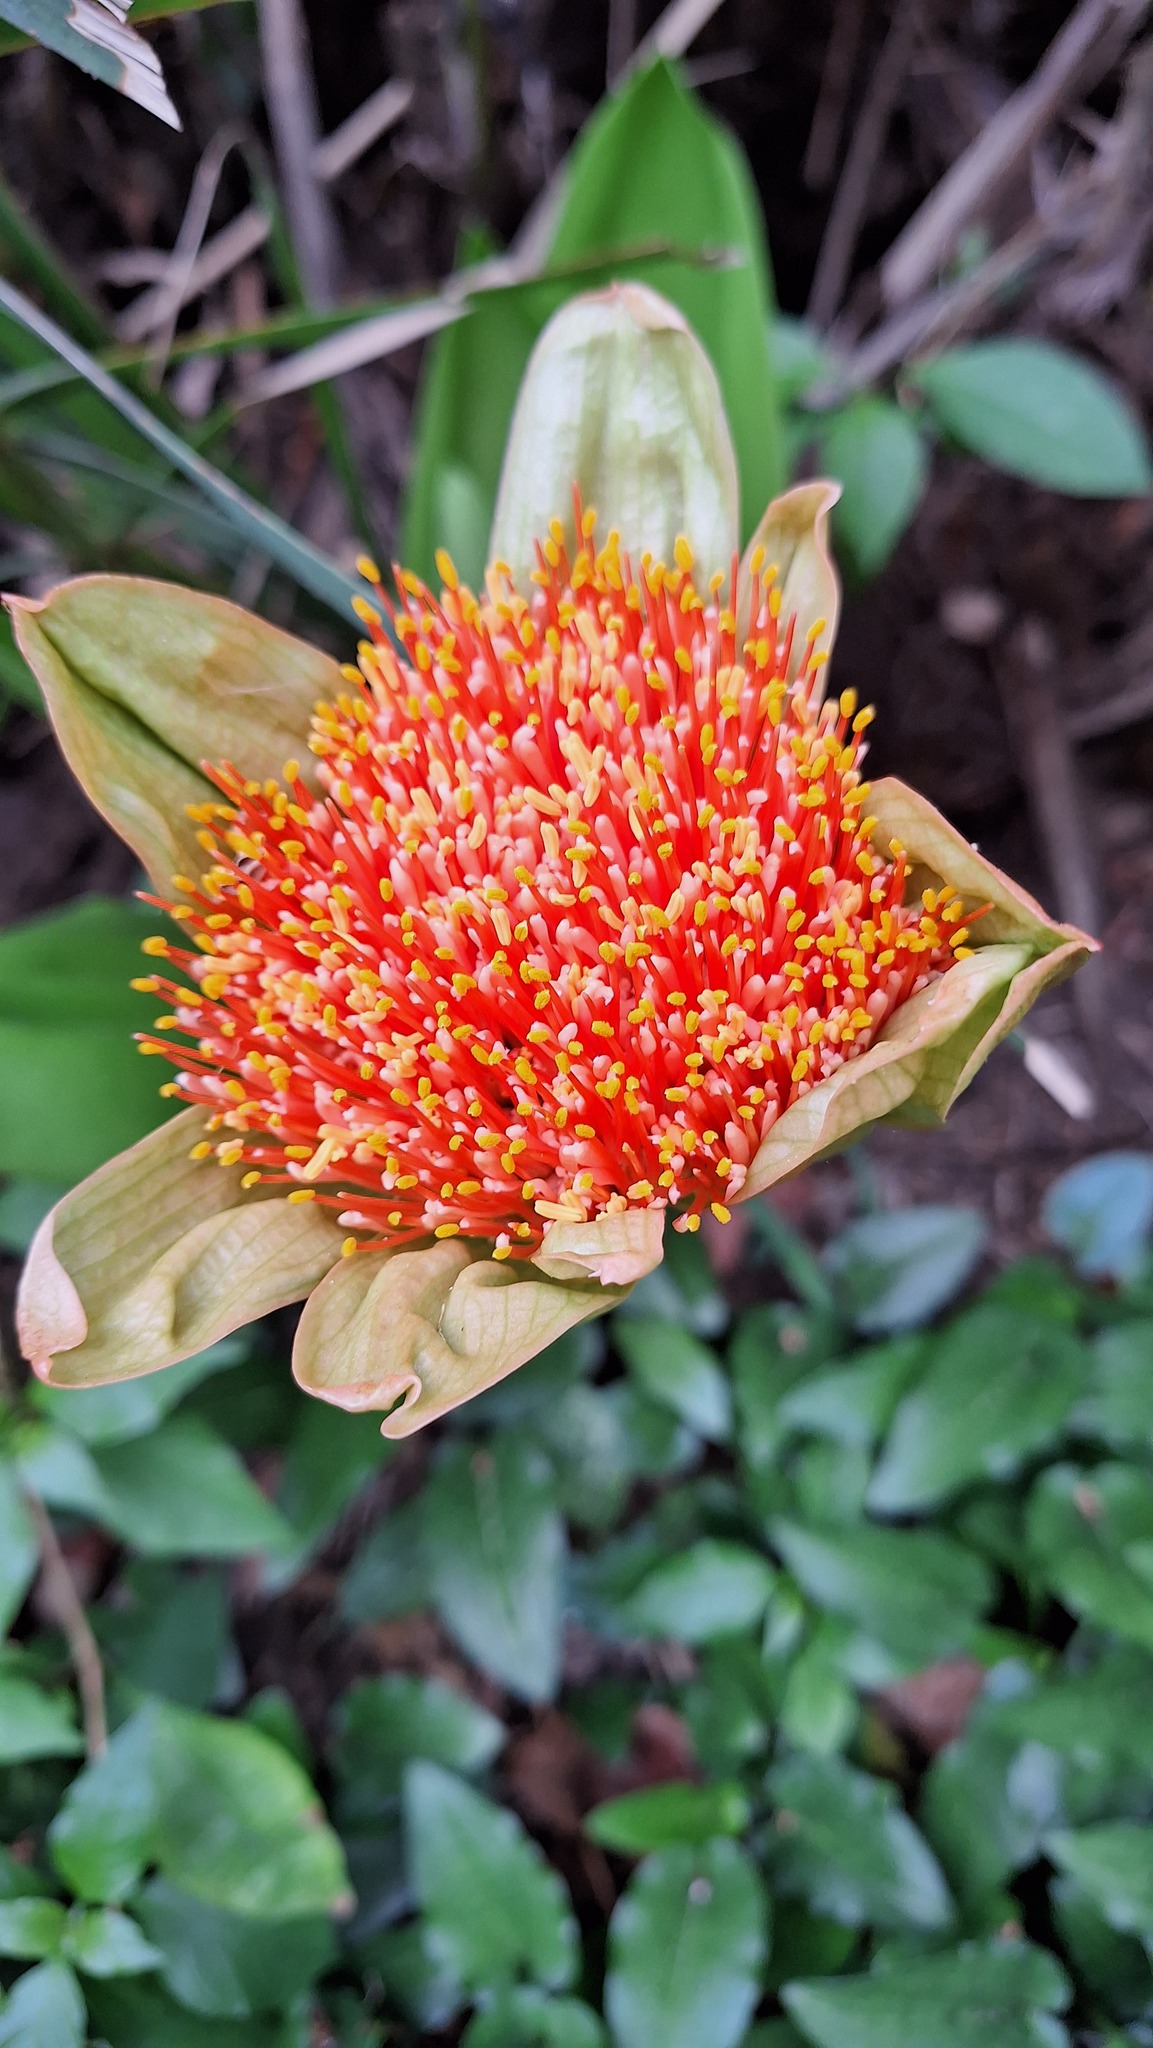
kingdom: Plantae
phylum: Tracheophyta
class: Liliopsida
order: Asparagales
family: Amaryllidaceae
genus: Scadoxus
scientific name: Scadoxus puniceus
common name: Royal-paintbrush
